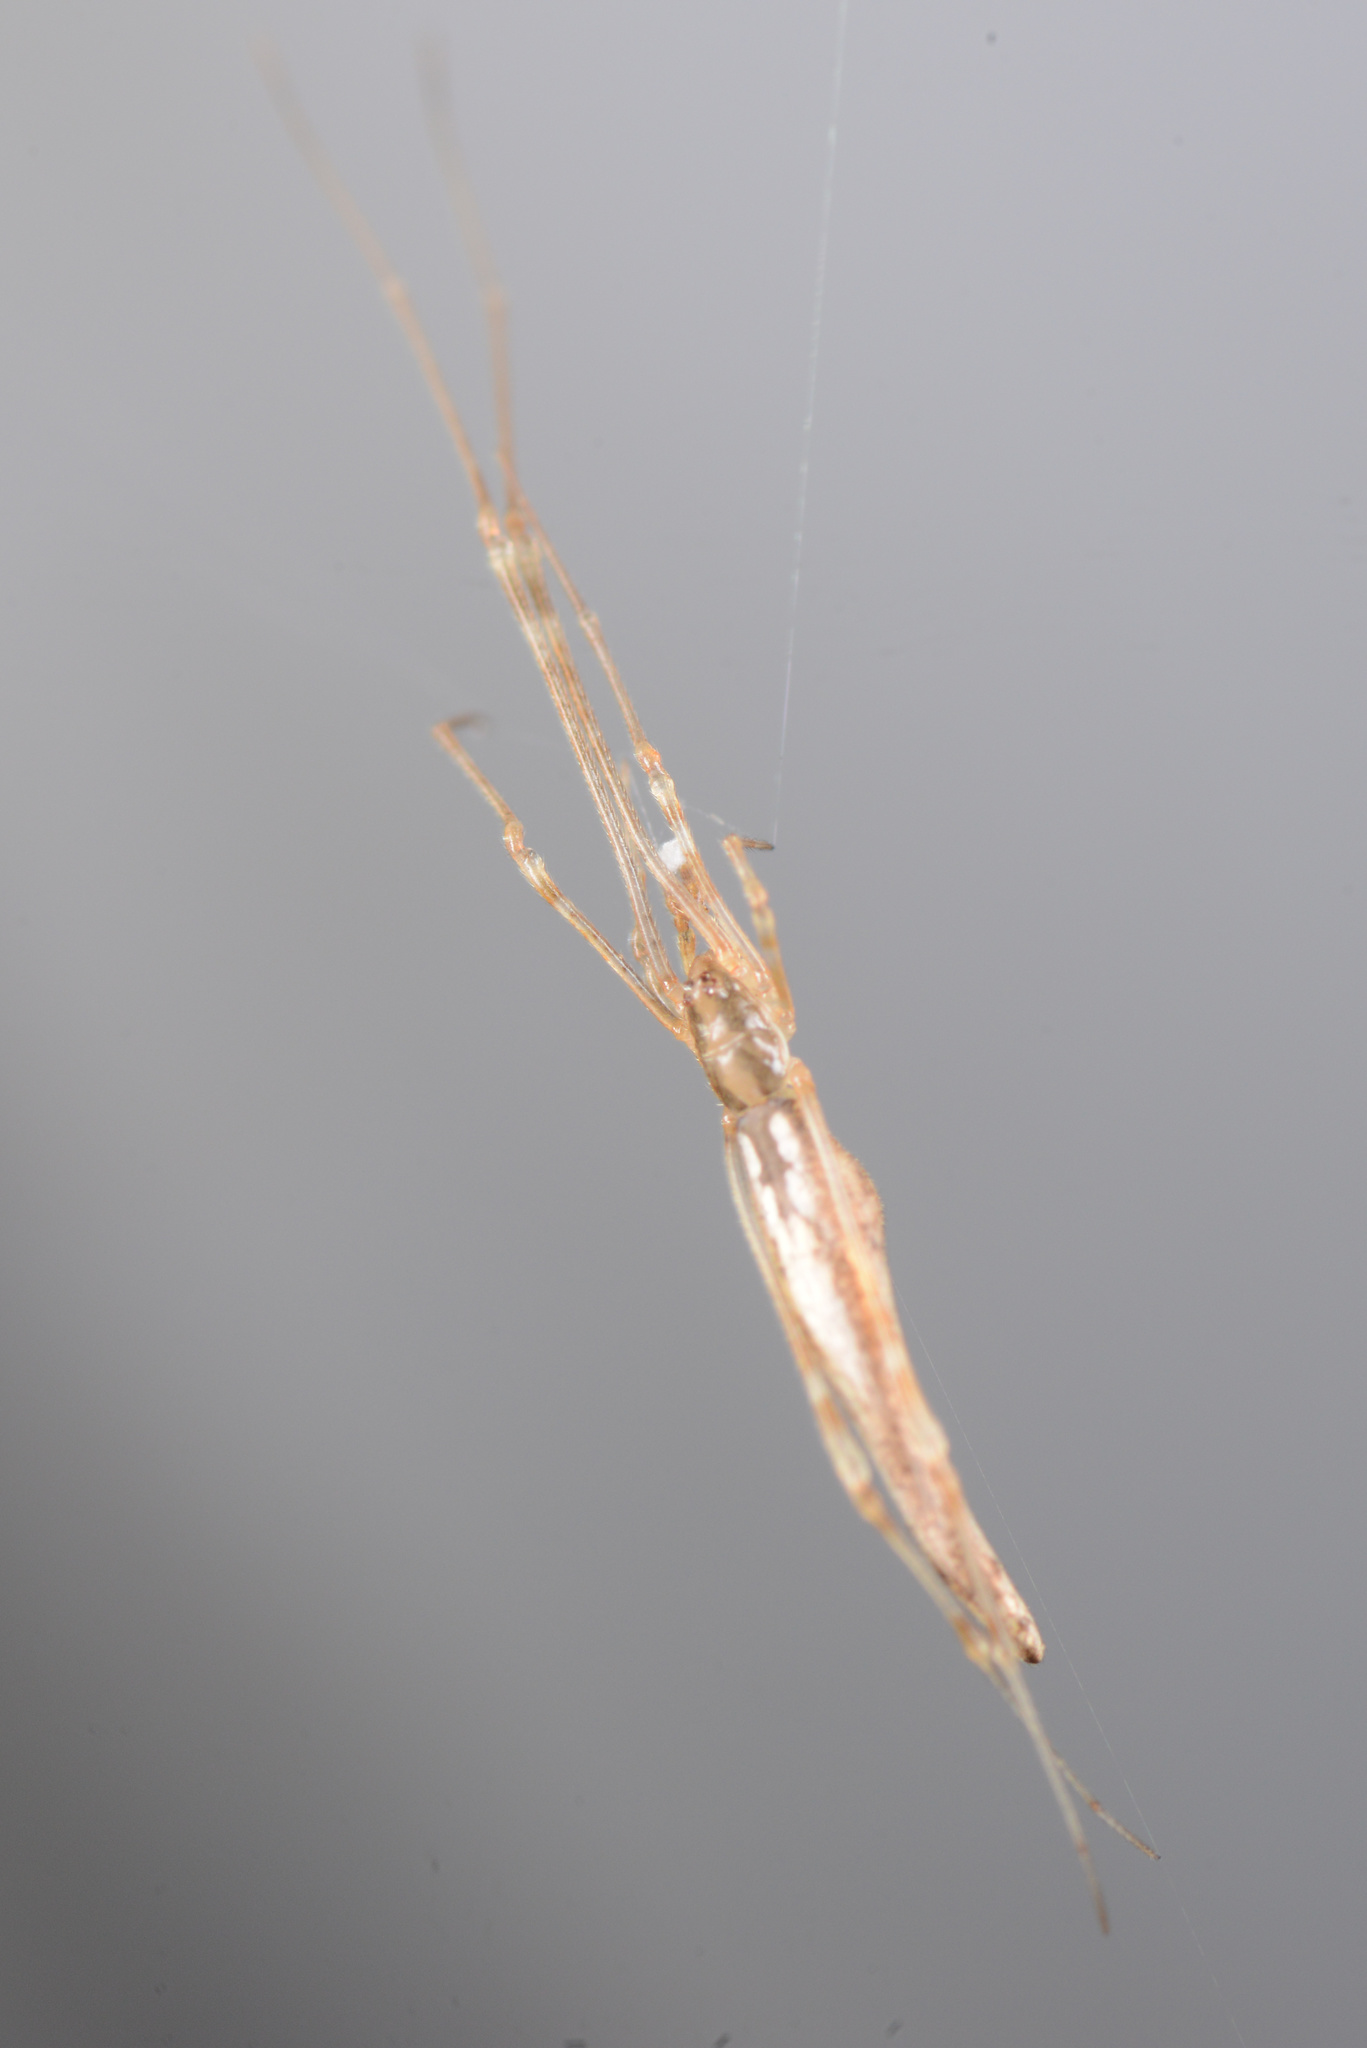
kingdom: Animalia
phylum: Arthropoda
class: Arachnida
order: Araneae
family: Theridiidae
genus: Rhomphaea
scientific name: Rhomphaea urquharti
